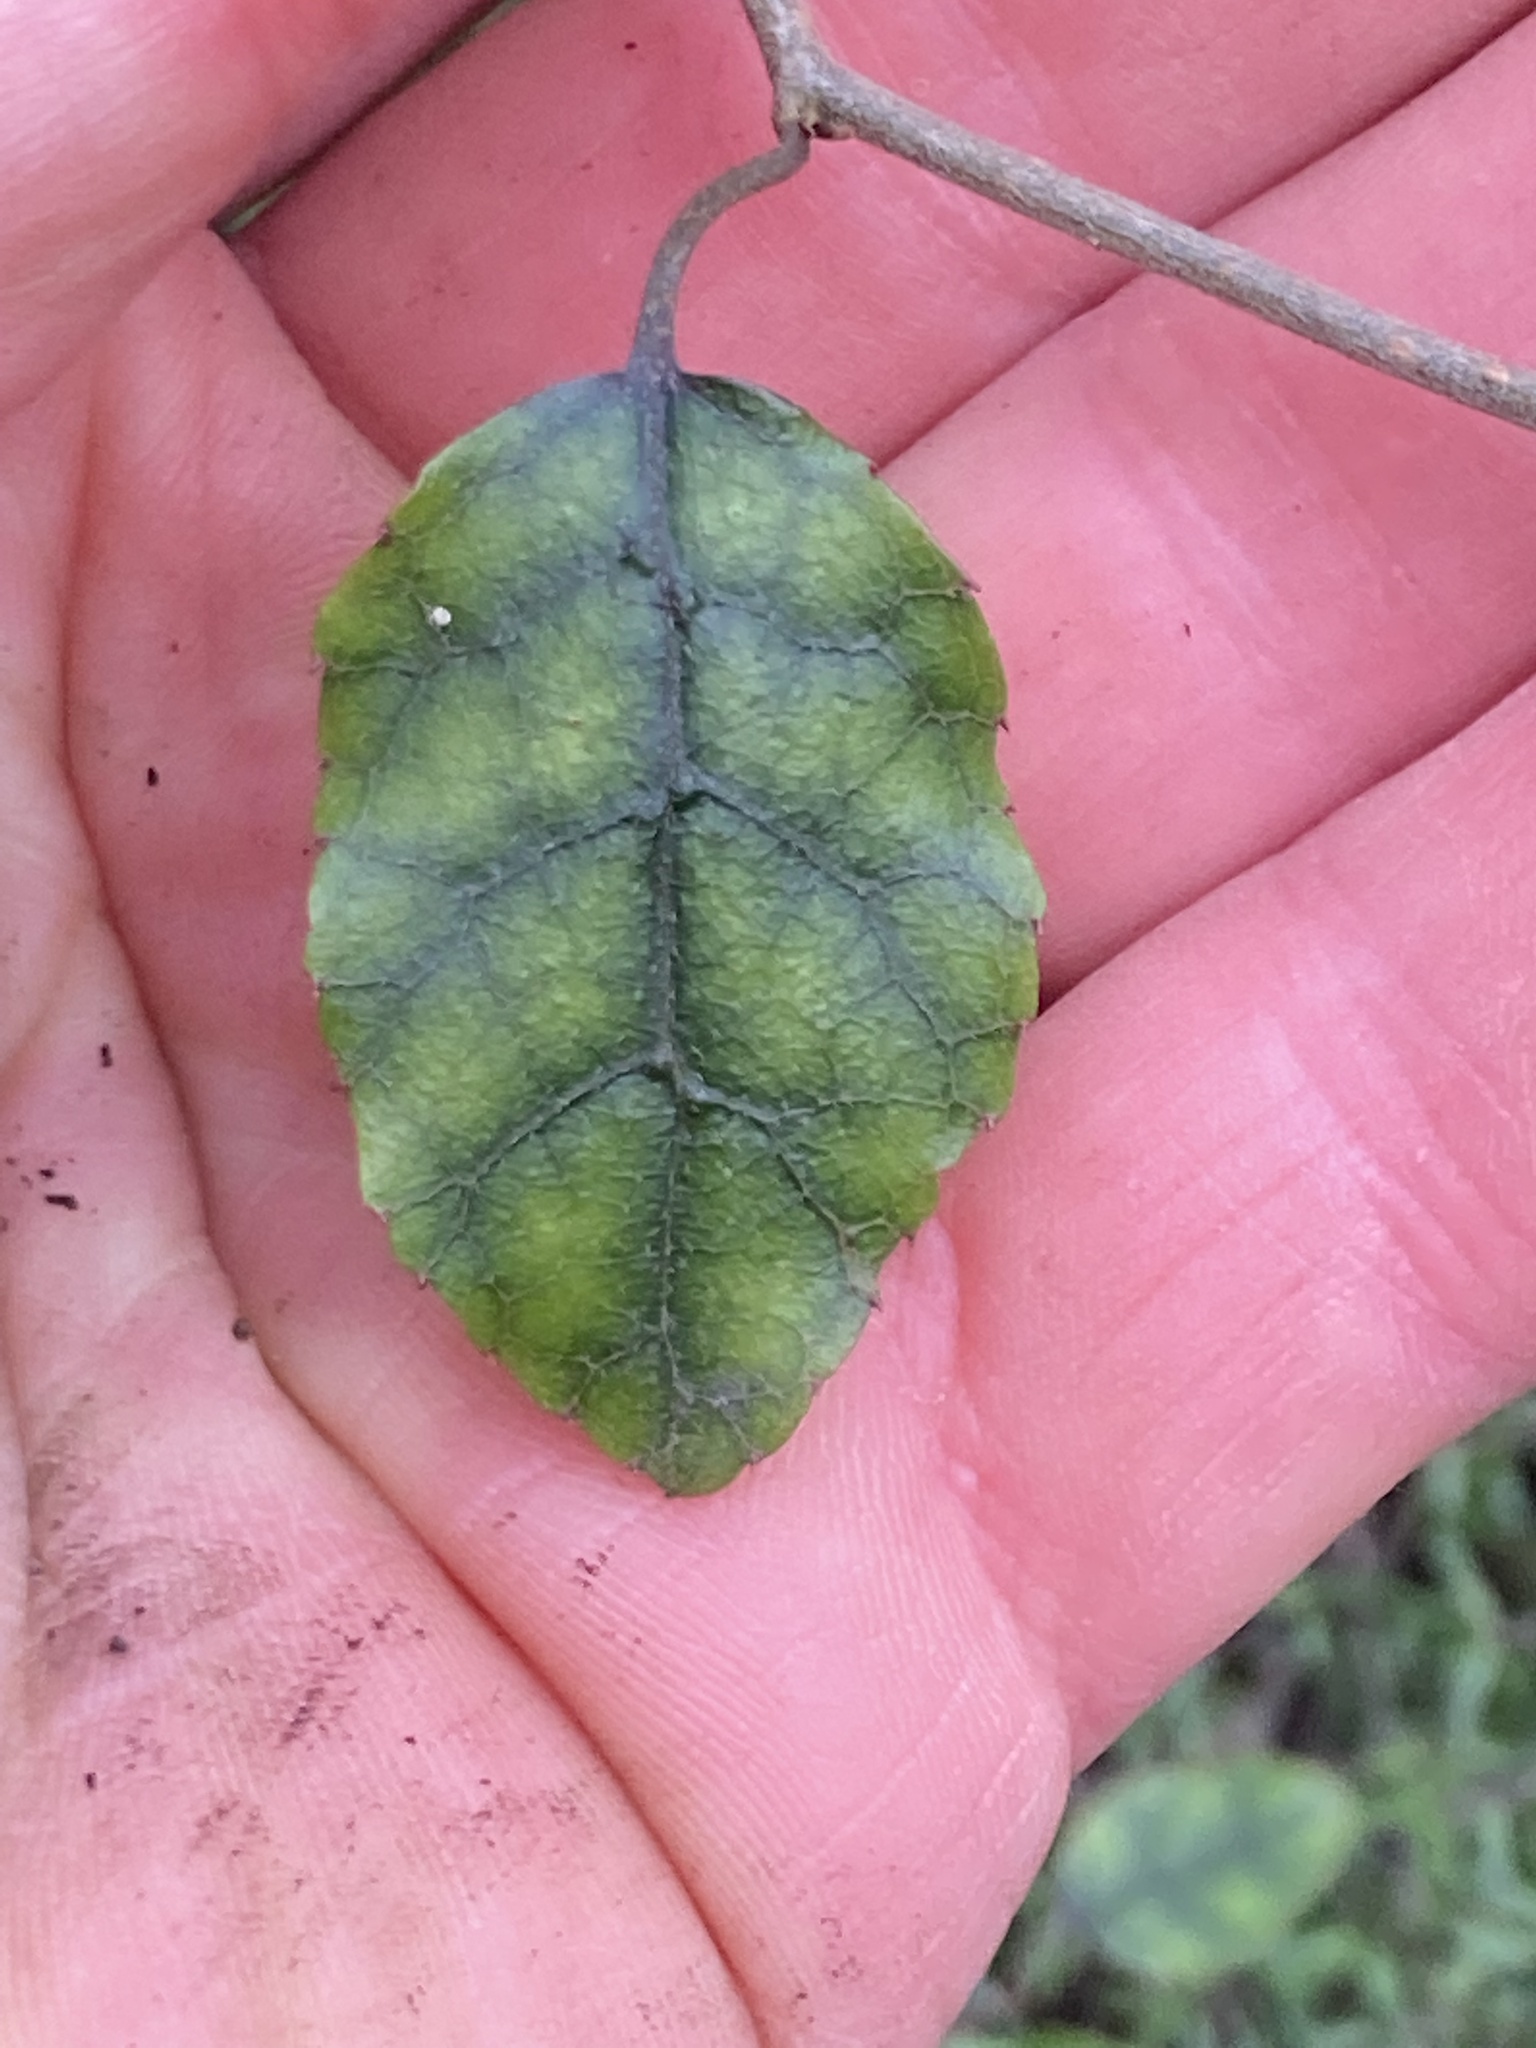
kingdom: Plantae
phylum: Tracheophyta
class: Magnoliopsida
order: Asterales
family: Rousseaceae
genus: Carpodetus
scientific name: Carpodetus serratus
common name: White mapau
